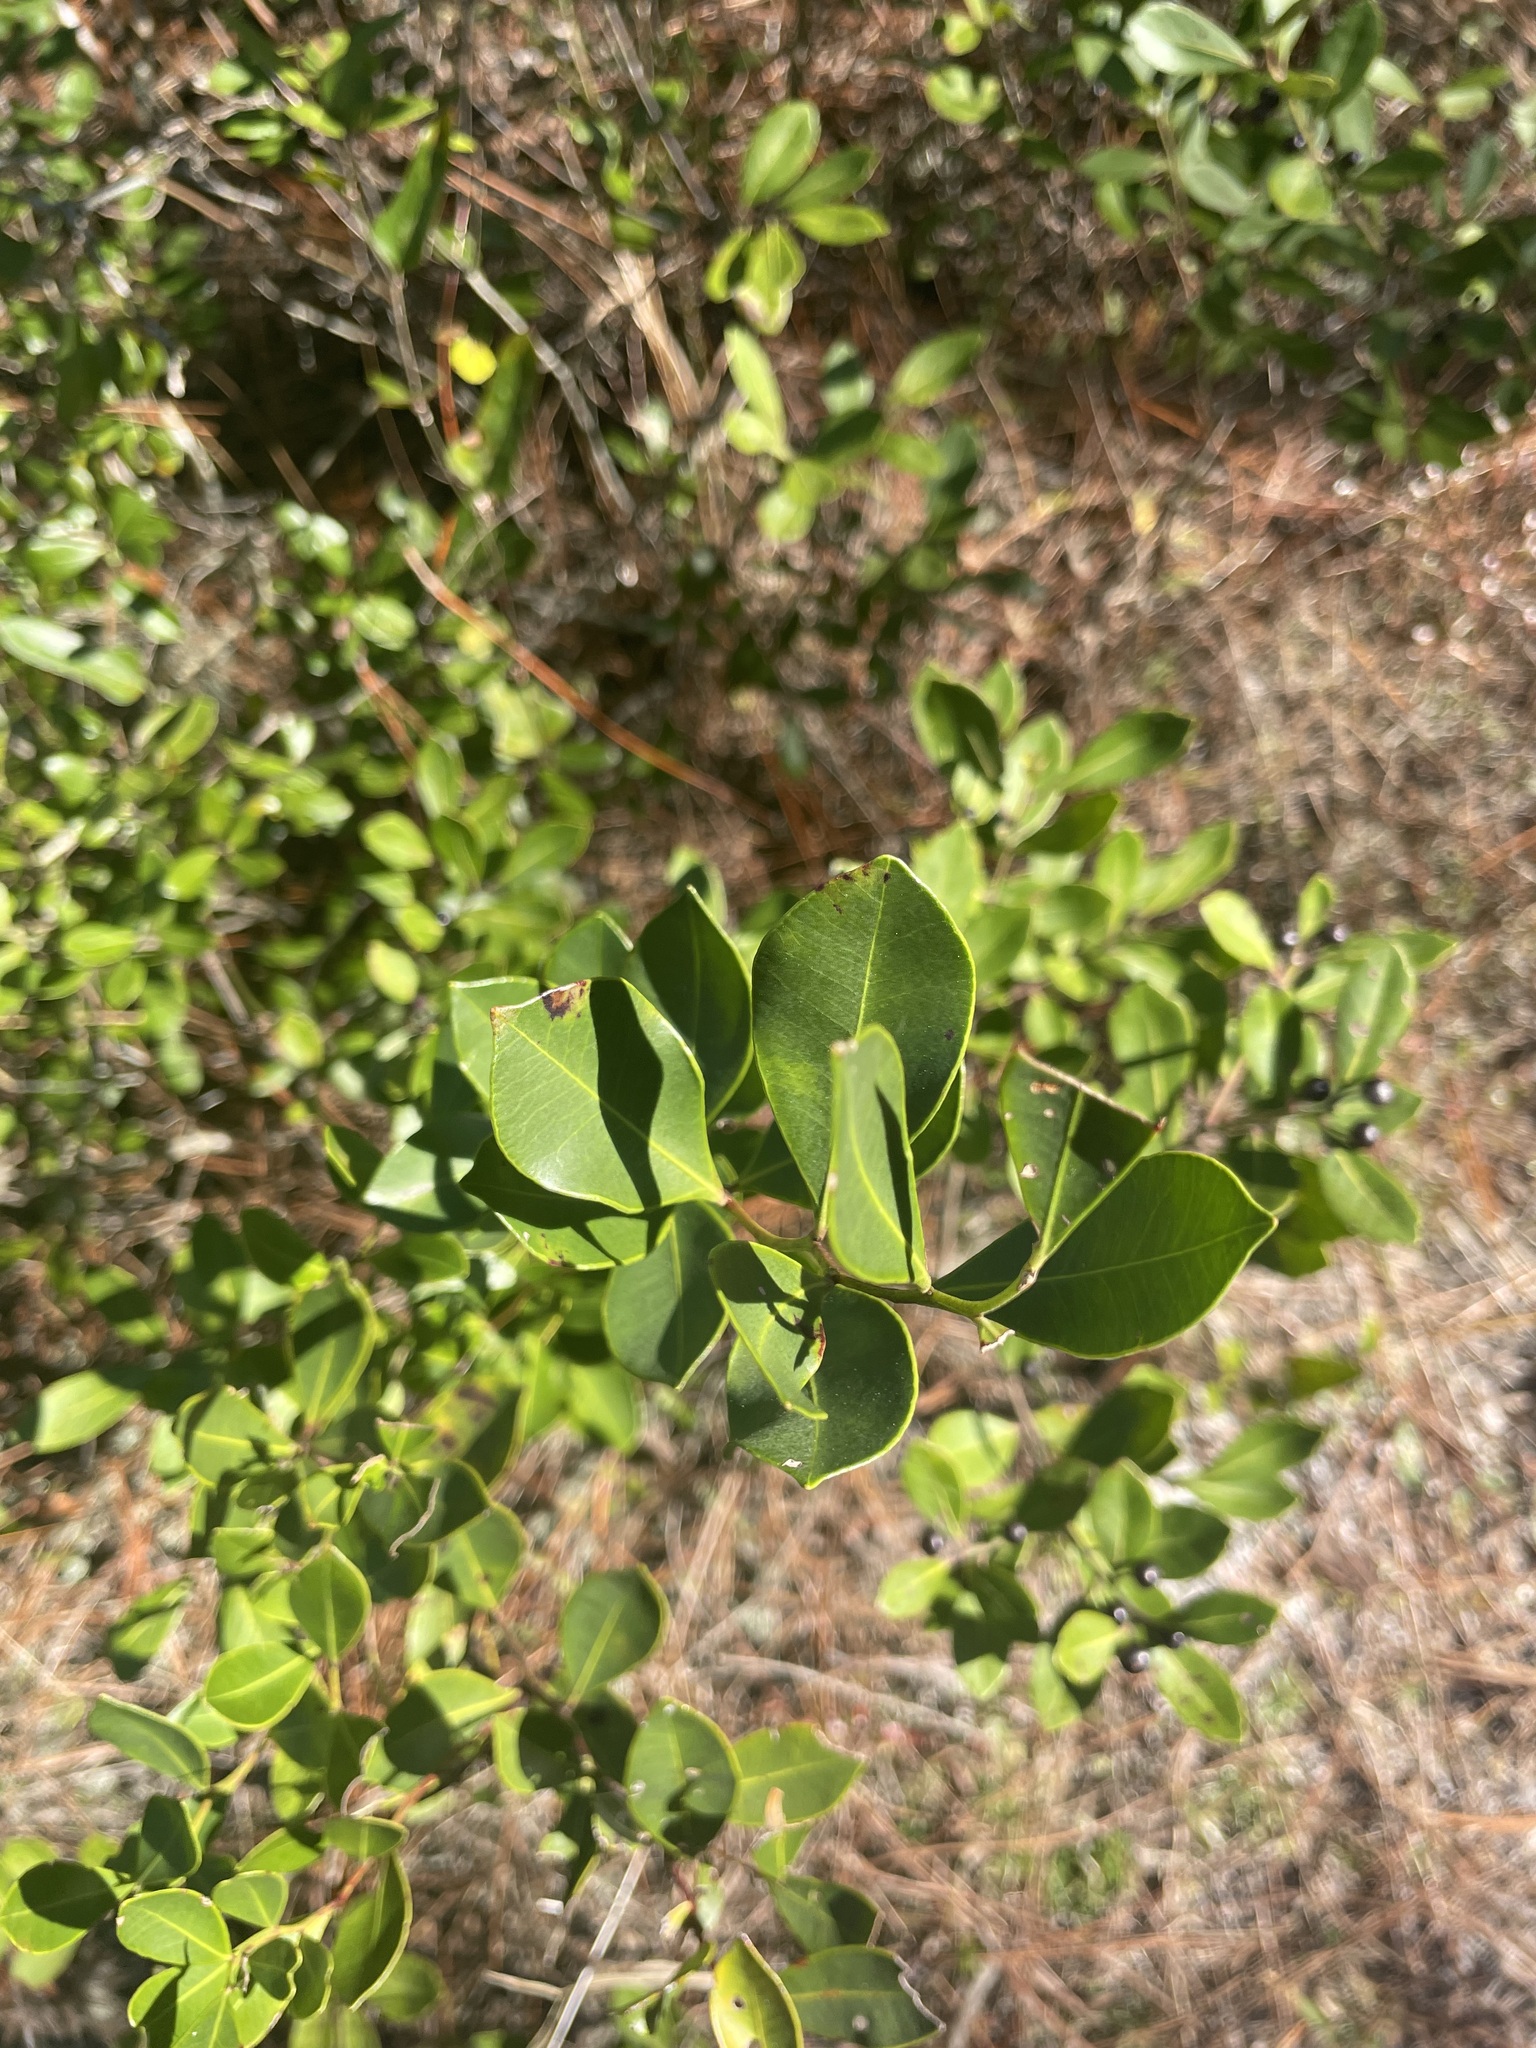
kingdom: Plantae
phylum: Tracheophyta
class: Magnoliopsida
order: Aquifoliales
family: Aquifoliaceae
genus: Ilex
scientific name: Ilex glabra
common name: Bitter gallberry
